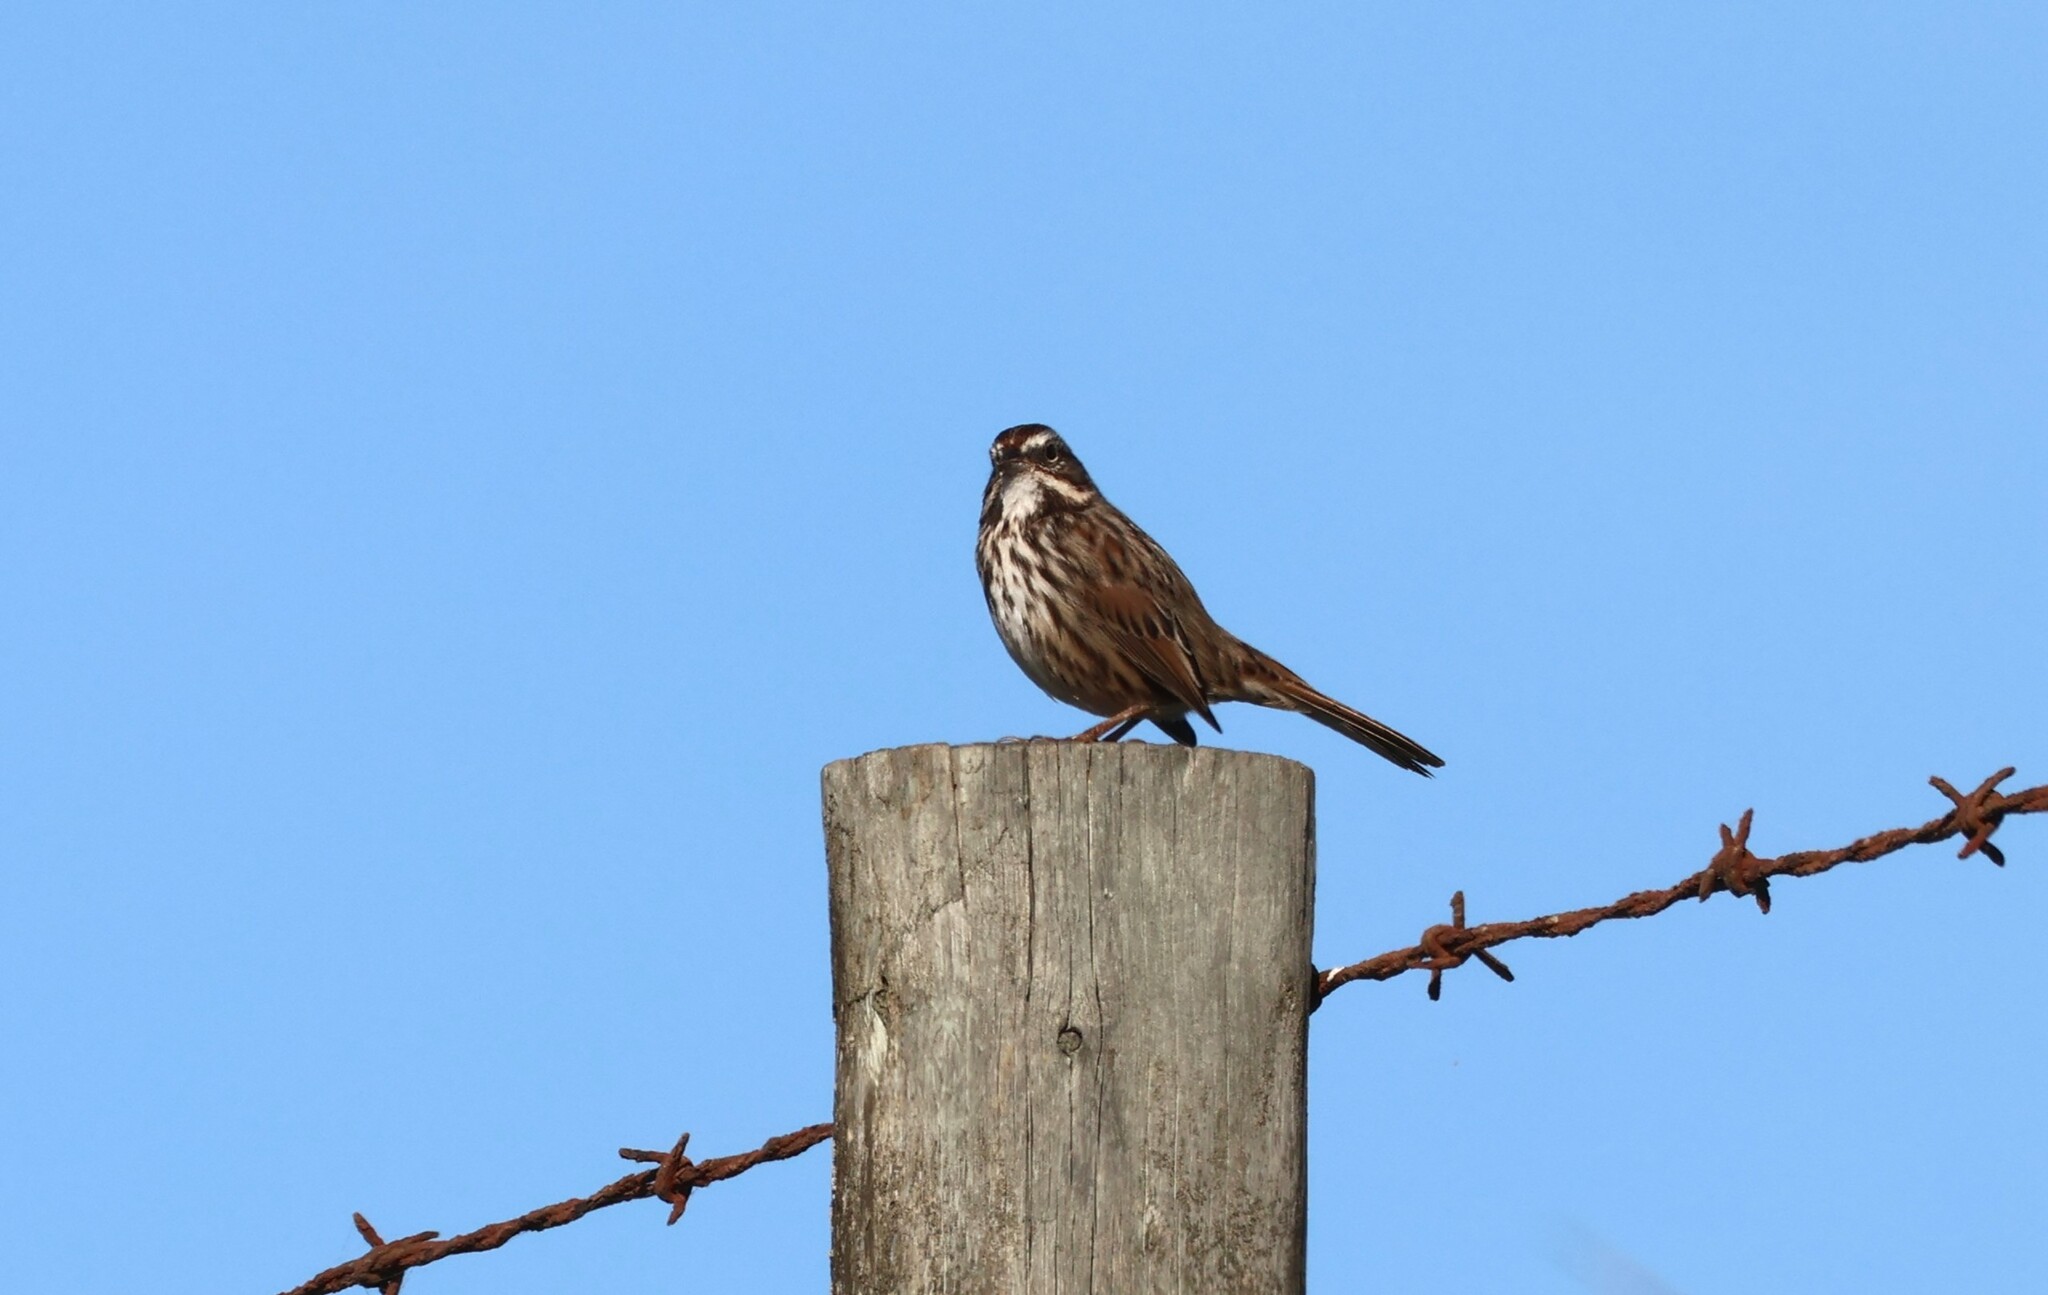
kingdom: Animalia
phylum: Chordata
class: Aves
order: Passeriformes
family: Passerellidae
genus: Melospiza
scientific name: Melospiza melodia
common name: Song sparrow
